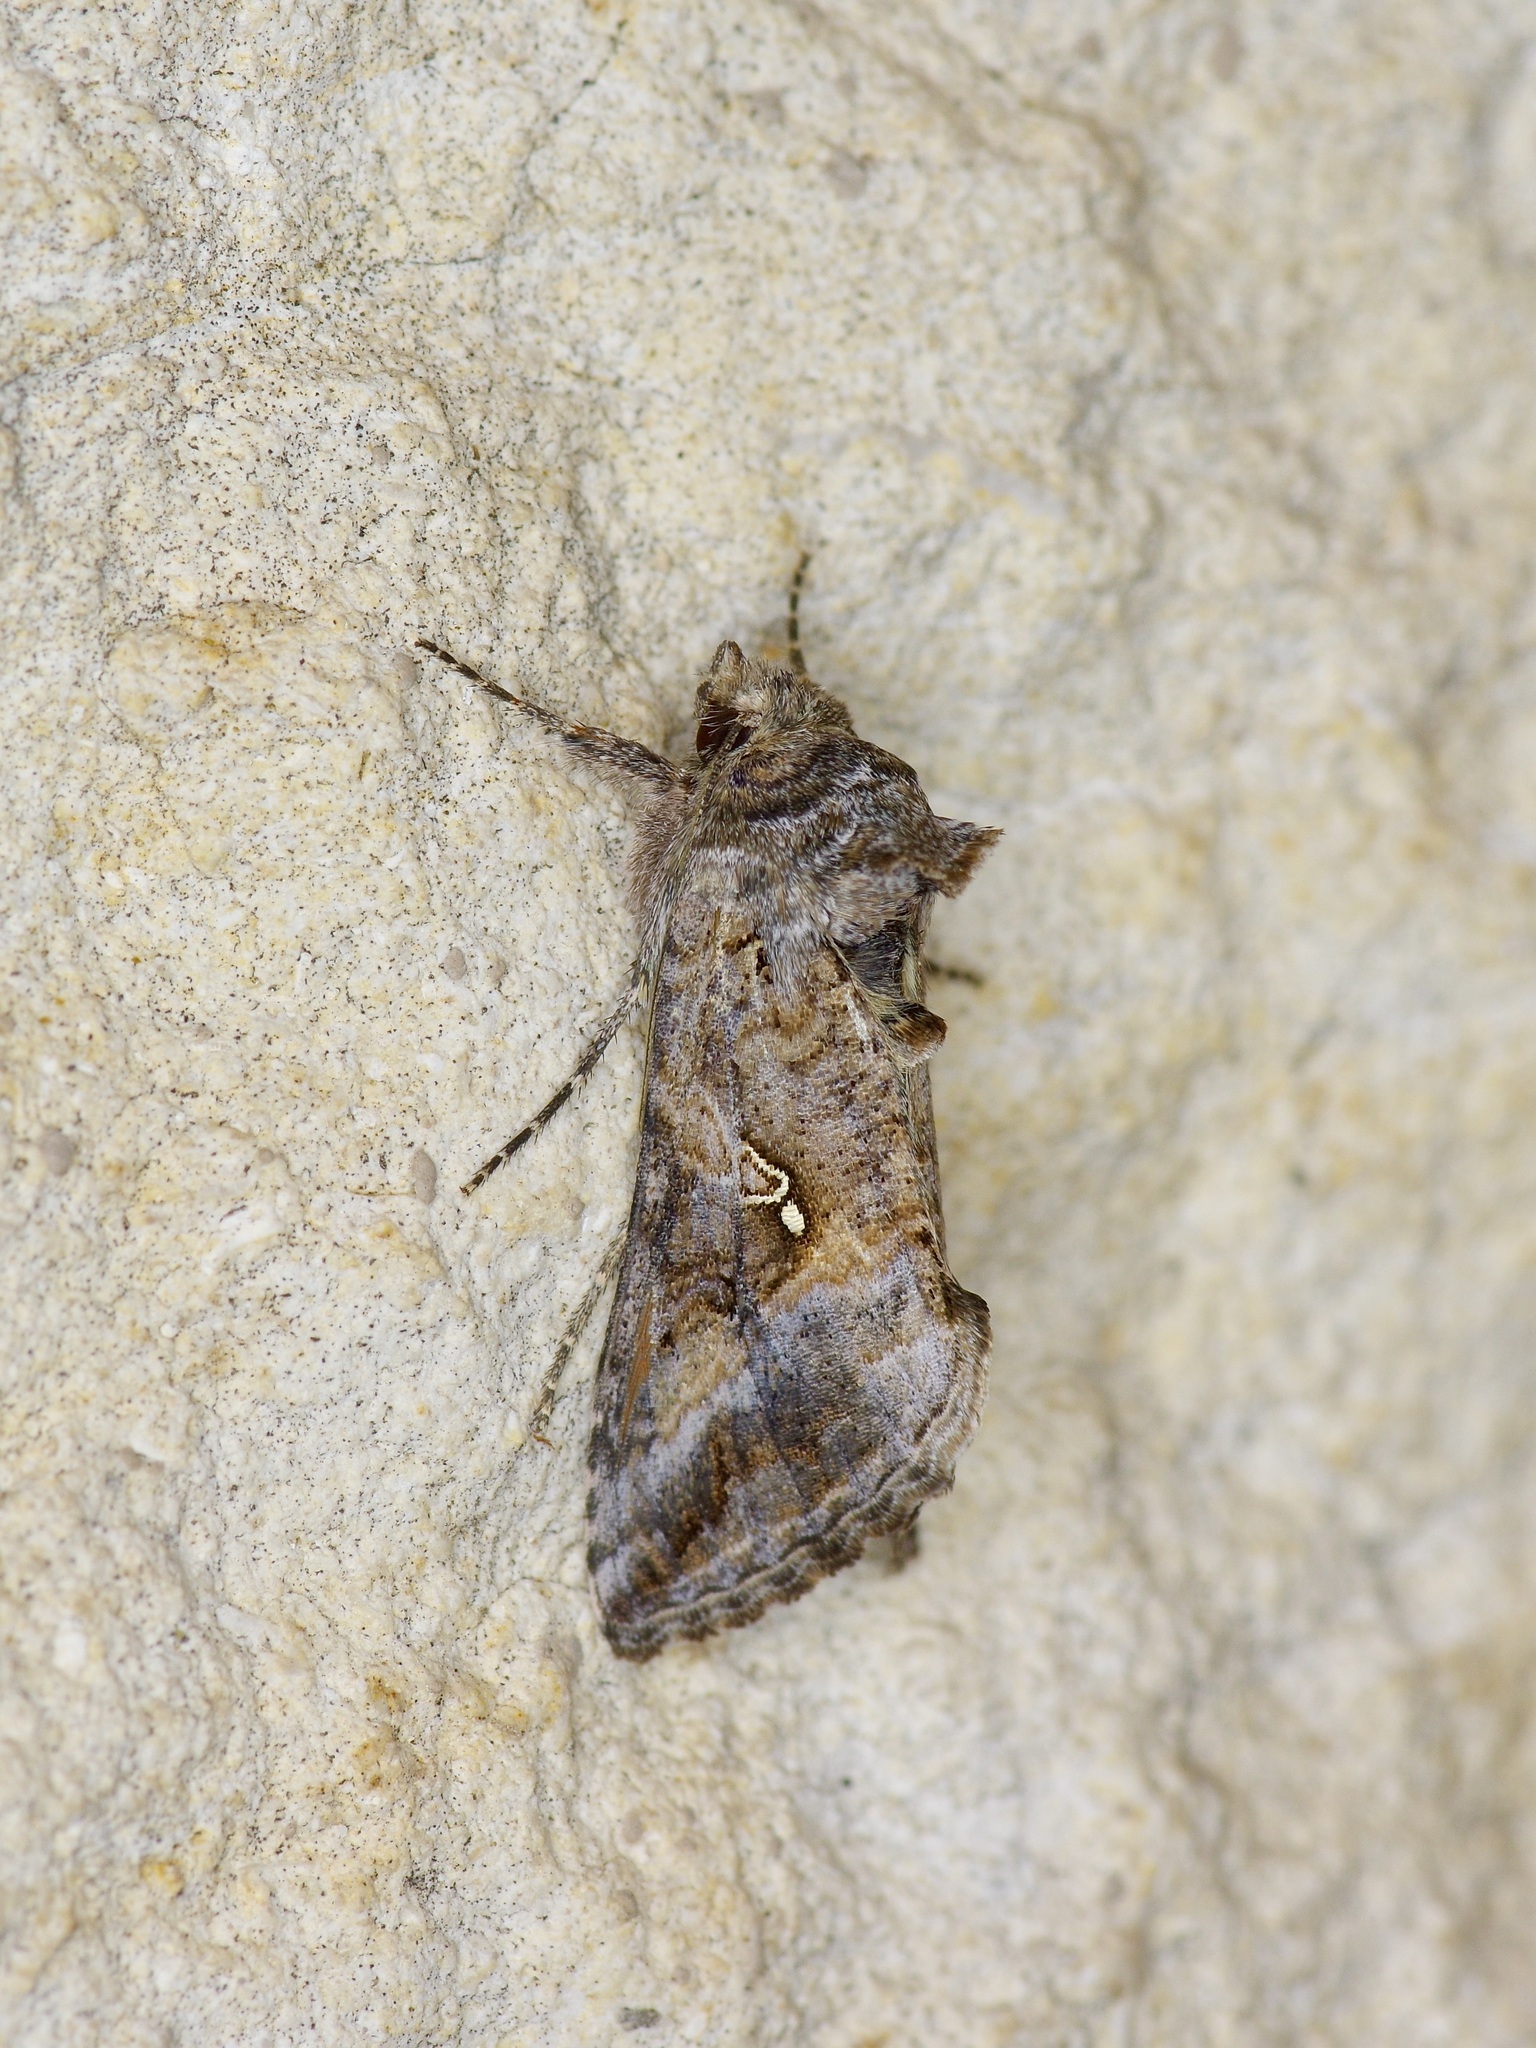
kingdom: Animalia
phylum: Arthropoda
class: Insecta
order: Lepidoptera
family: Noctuidae
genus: Rachiplusia
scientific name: Rachiplusia ou
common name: Gray looper moth
